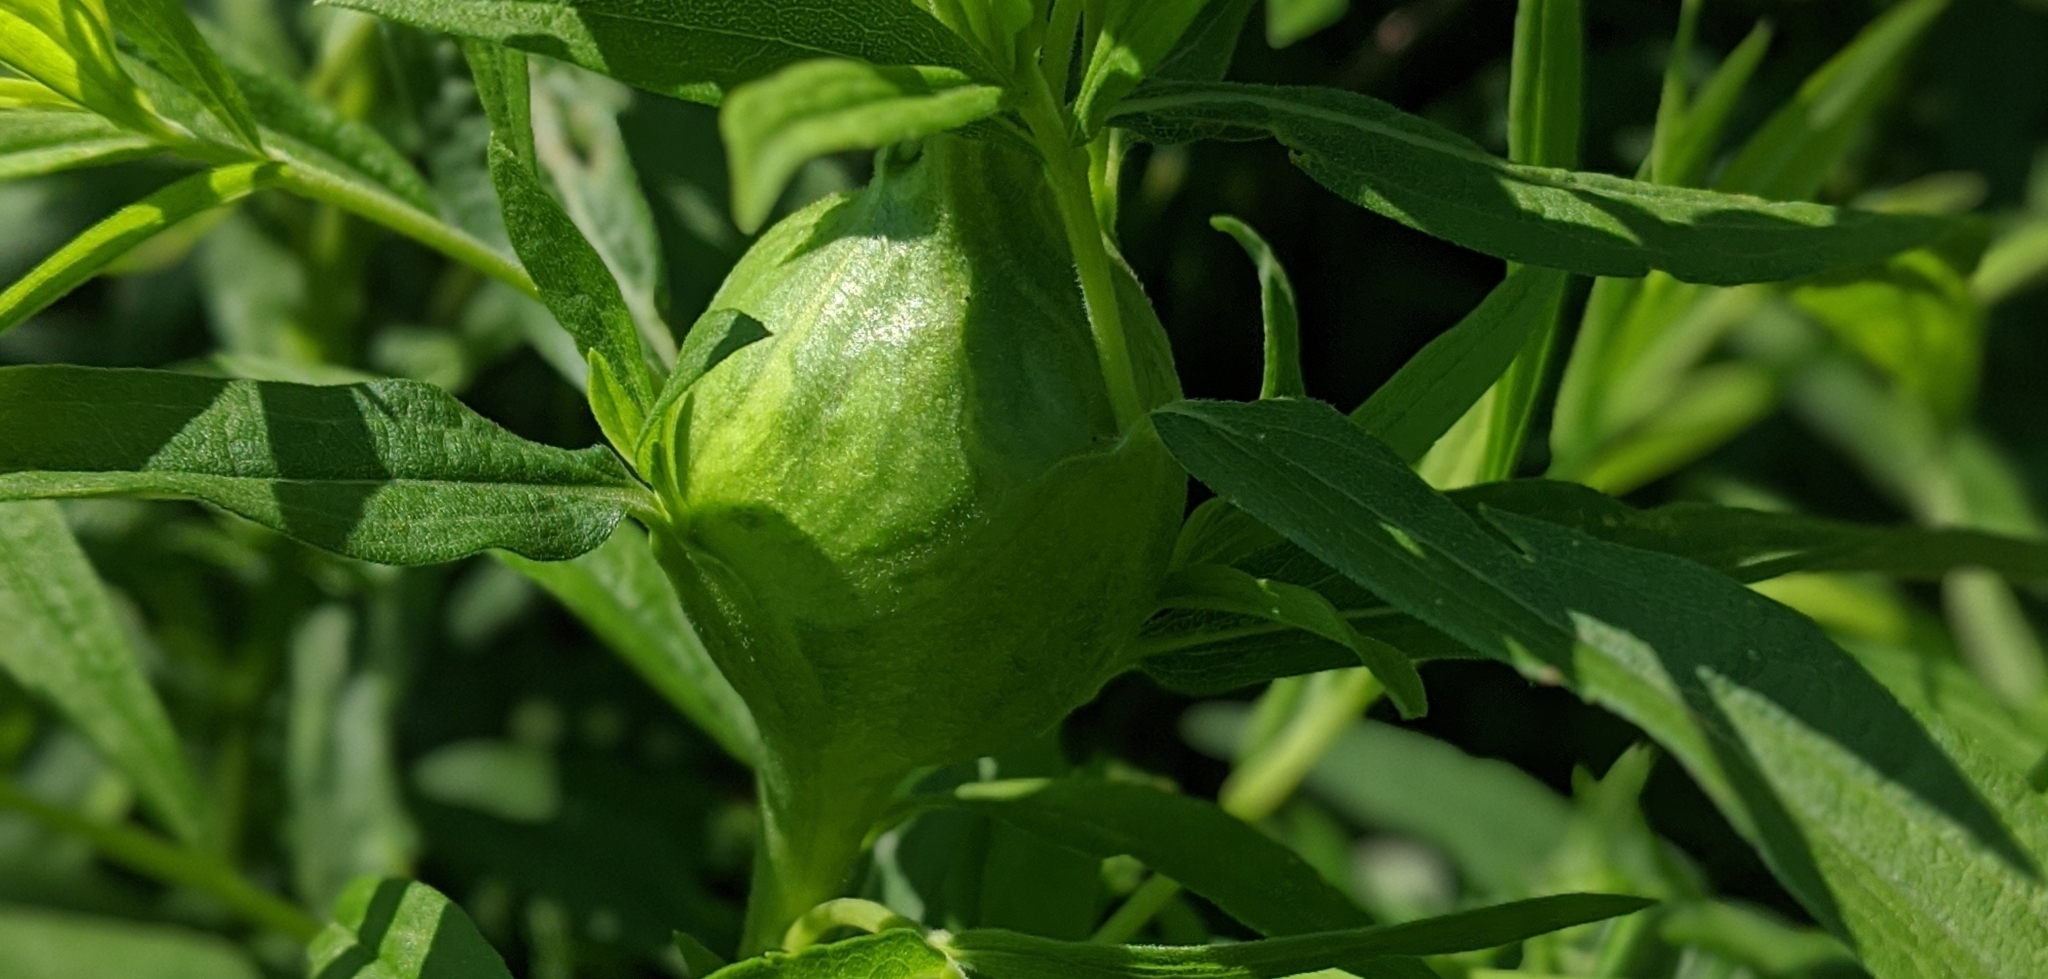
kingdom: Animalia
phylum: Arthropoda
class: Insecta
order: Diptera
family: Tephritidae
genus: Eurosta
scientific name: Eurosta solidaginis
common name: Goldenrod gall fly
